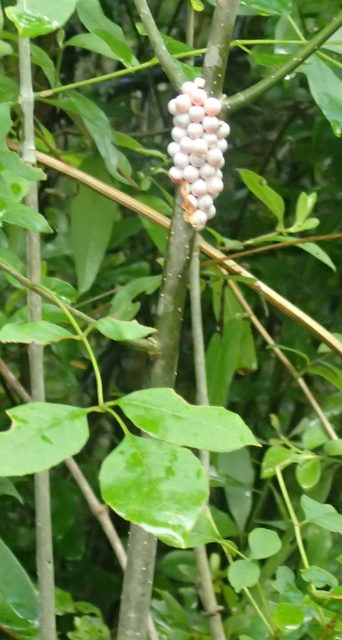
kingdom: Animalia
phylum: Mollusca
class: Gastropoda
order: Architaenioglossa
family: Ampullariidae
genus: Pomacea
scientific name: Pomacea paludosa
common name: Florida applesnail
